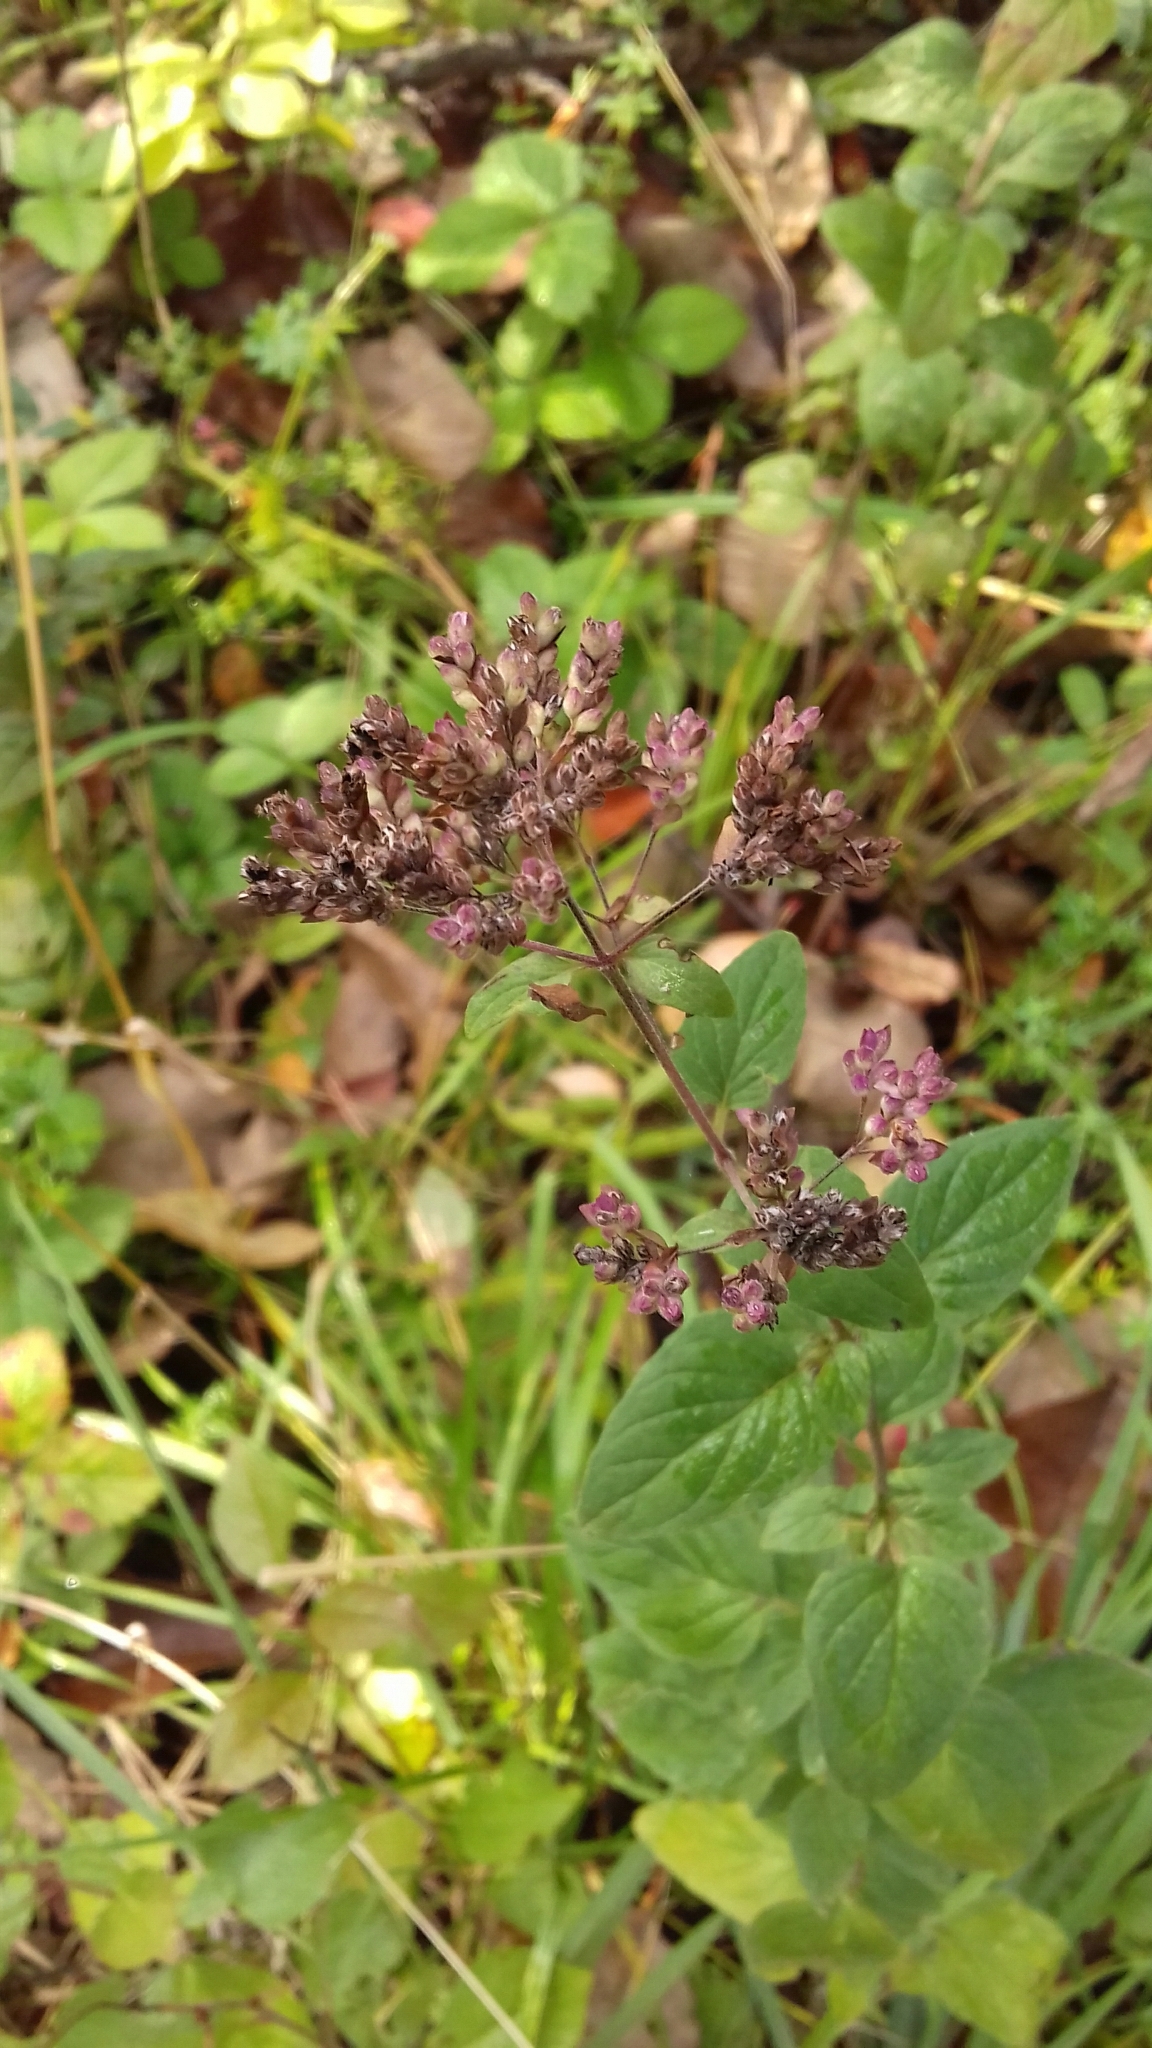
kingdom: Plantae
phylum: Tracheophyta
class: Magnoliopsida
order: Lamiales
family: Lamiaceae
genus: Origanum
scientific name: Origanum vulgare
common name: Wild marjoram
